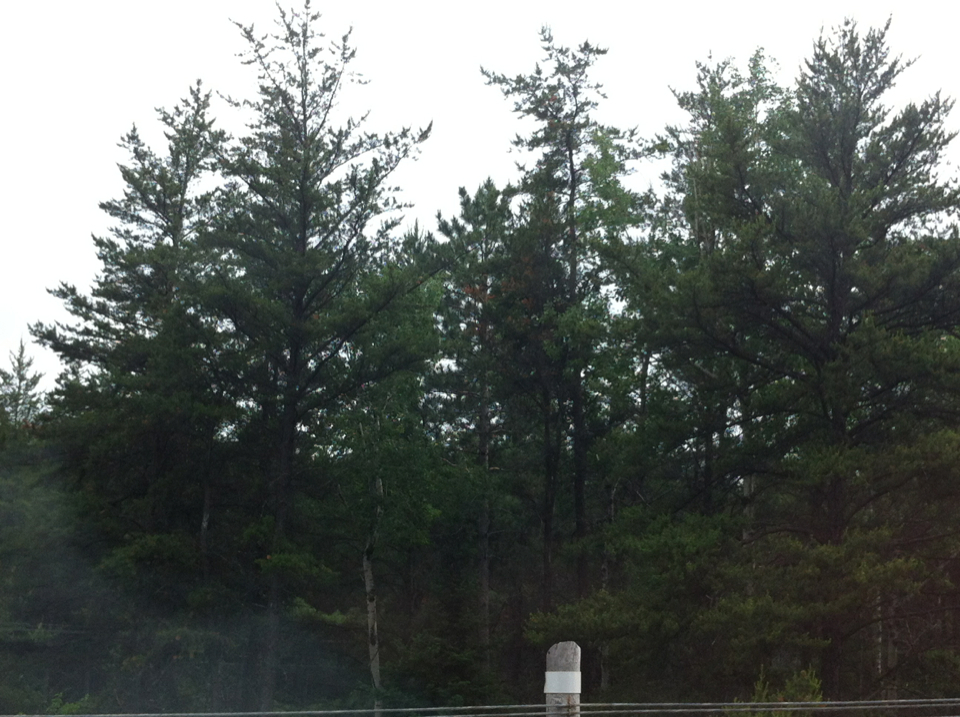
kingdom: Plantae
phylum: Tracheophyta
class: Pinopsida
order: Pinales
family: Pinaceae
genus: Pinus
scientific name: Pinus banksiana
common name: Jack pine
